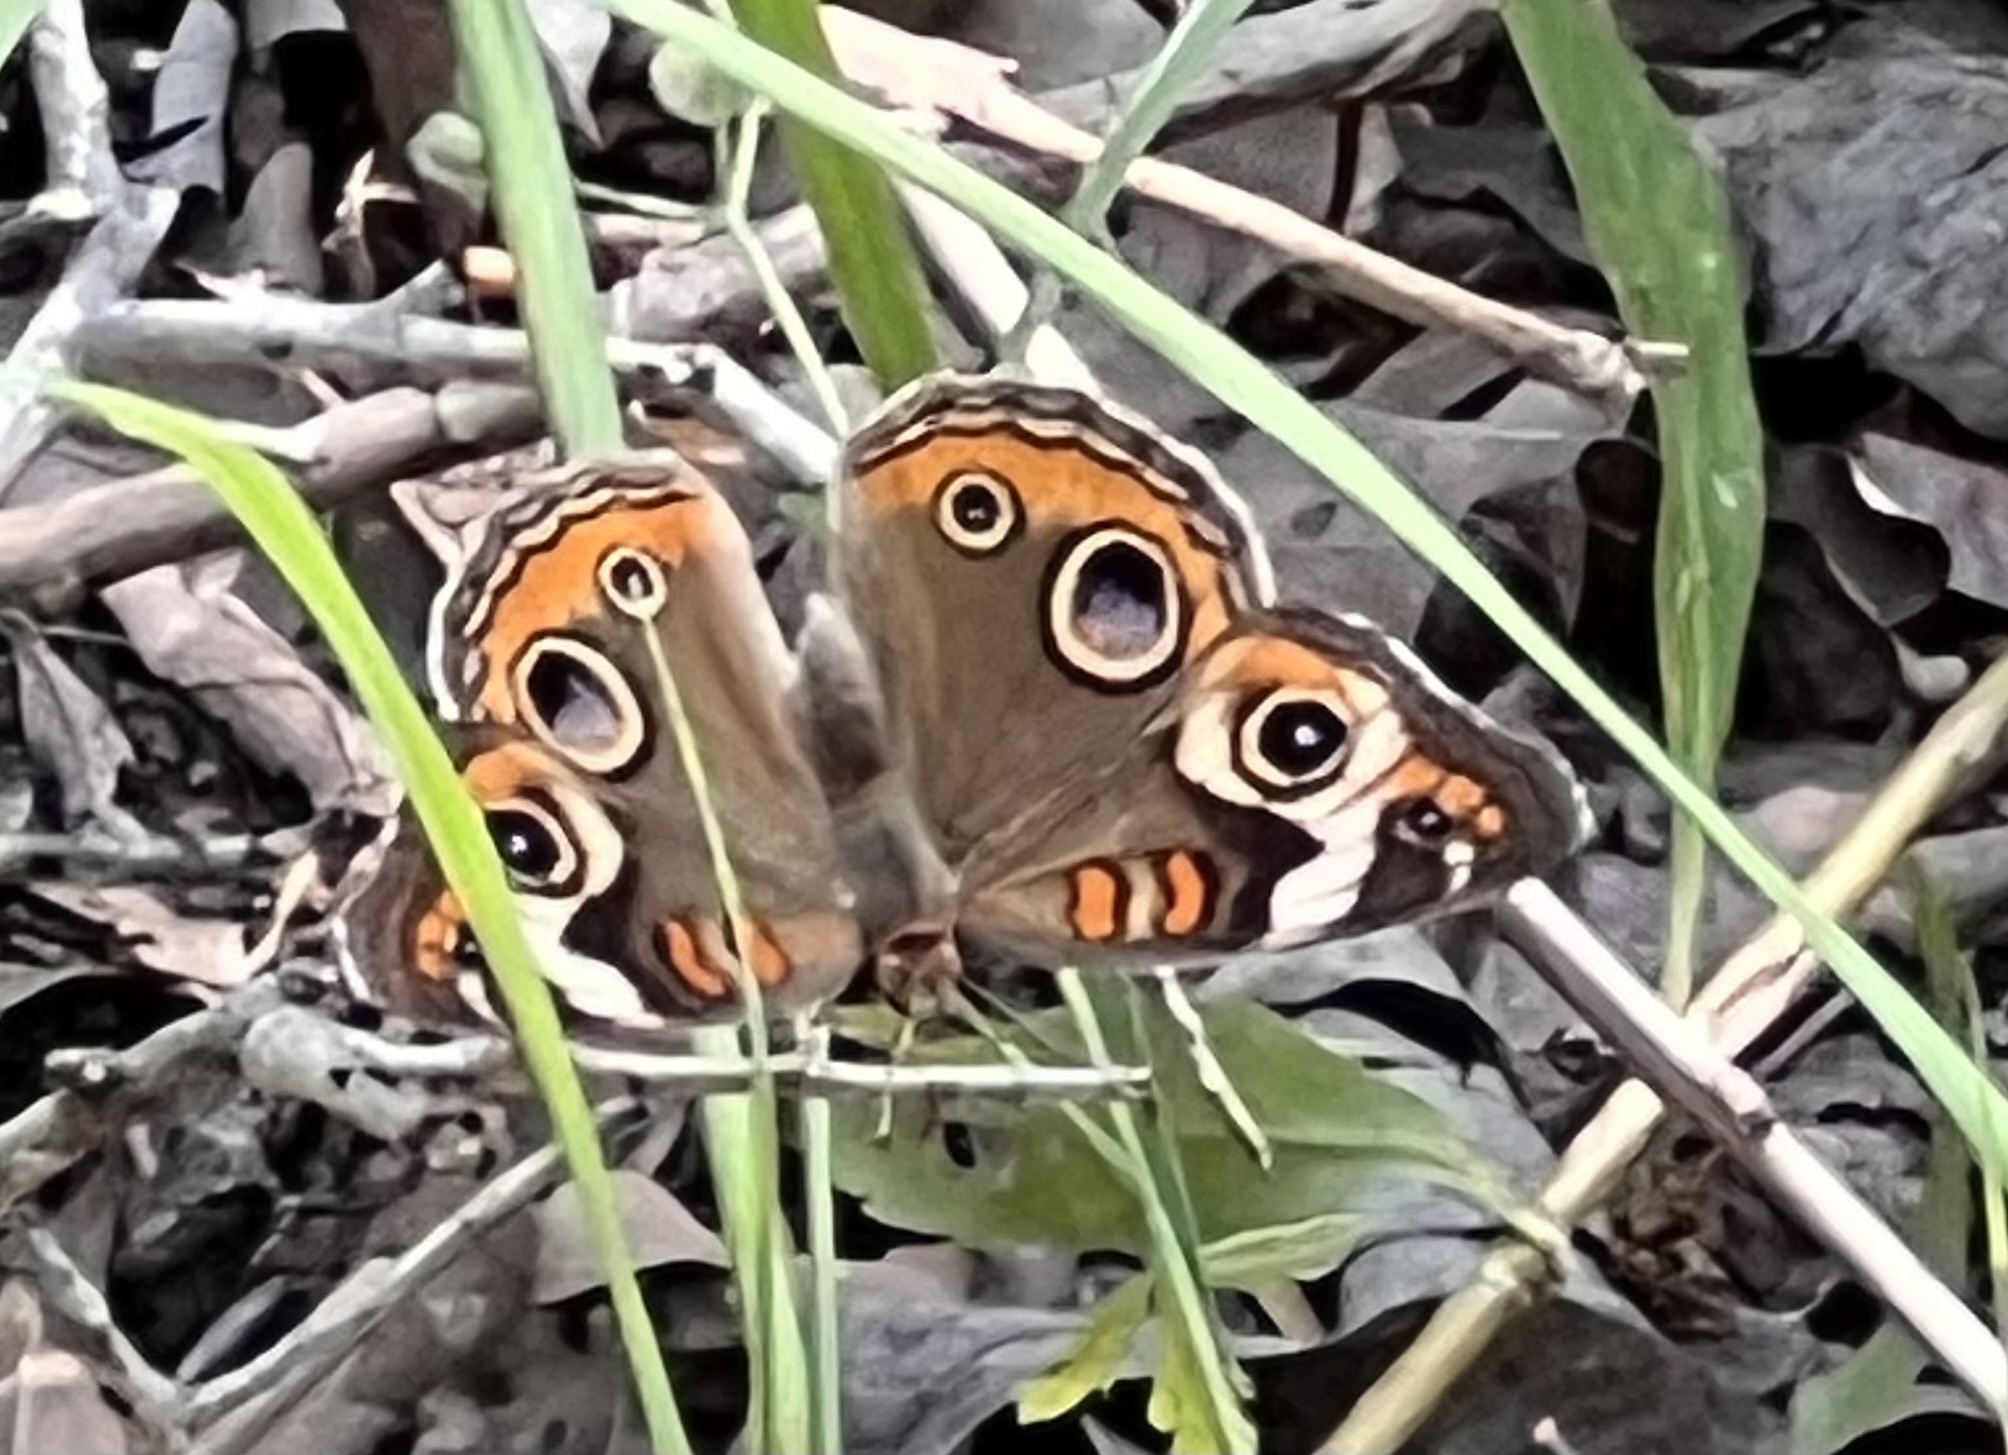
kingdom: Animalia
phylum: Arthropoda
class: Insecta
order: Lepidoptera
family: Nymphalidae
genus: Junonia
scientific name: Junonia coenia
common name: Common buckeye
